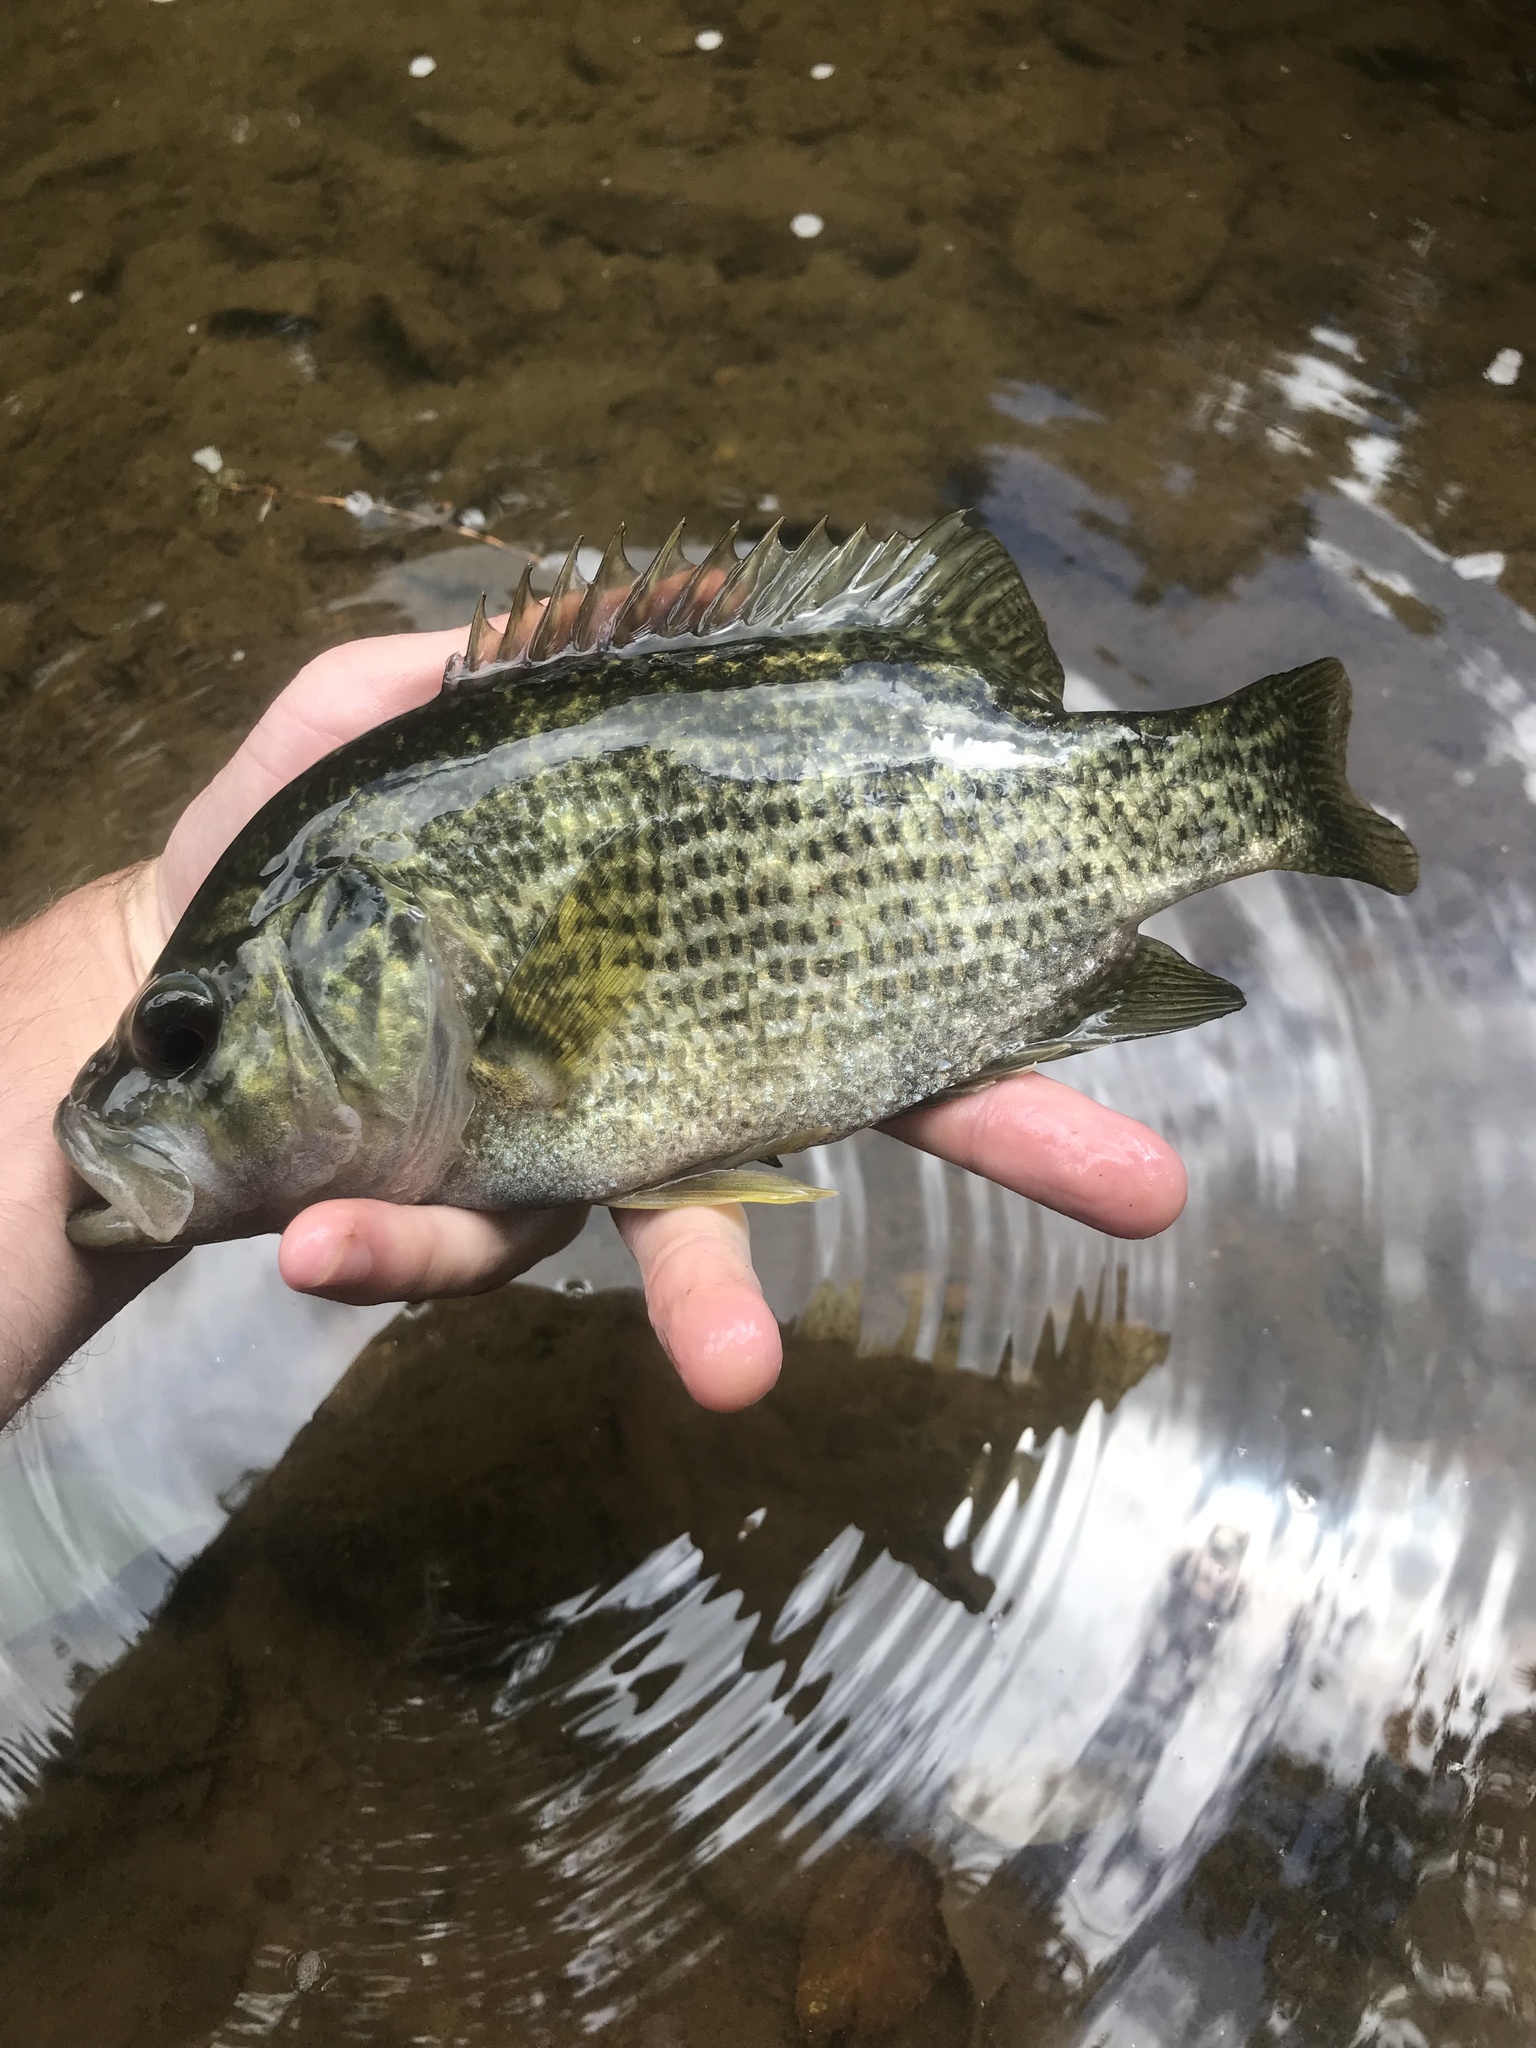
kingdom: Animalia
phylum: Chordata
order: Perciformes
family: Centrarchidae
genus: Ambloplites
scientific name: Ambloplites cavifrons
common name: Roanoke bass
